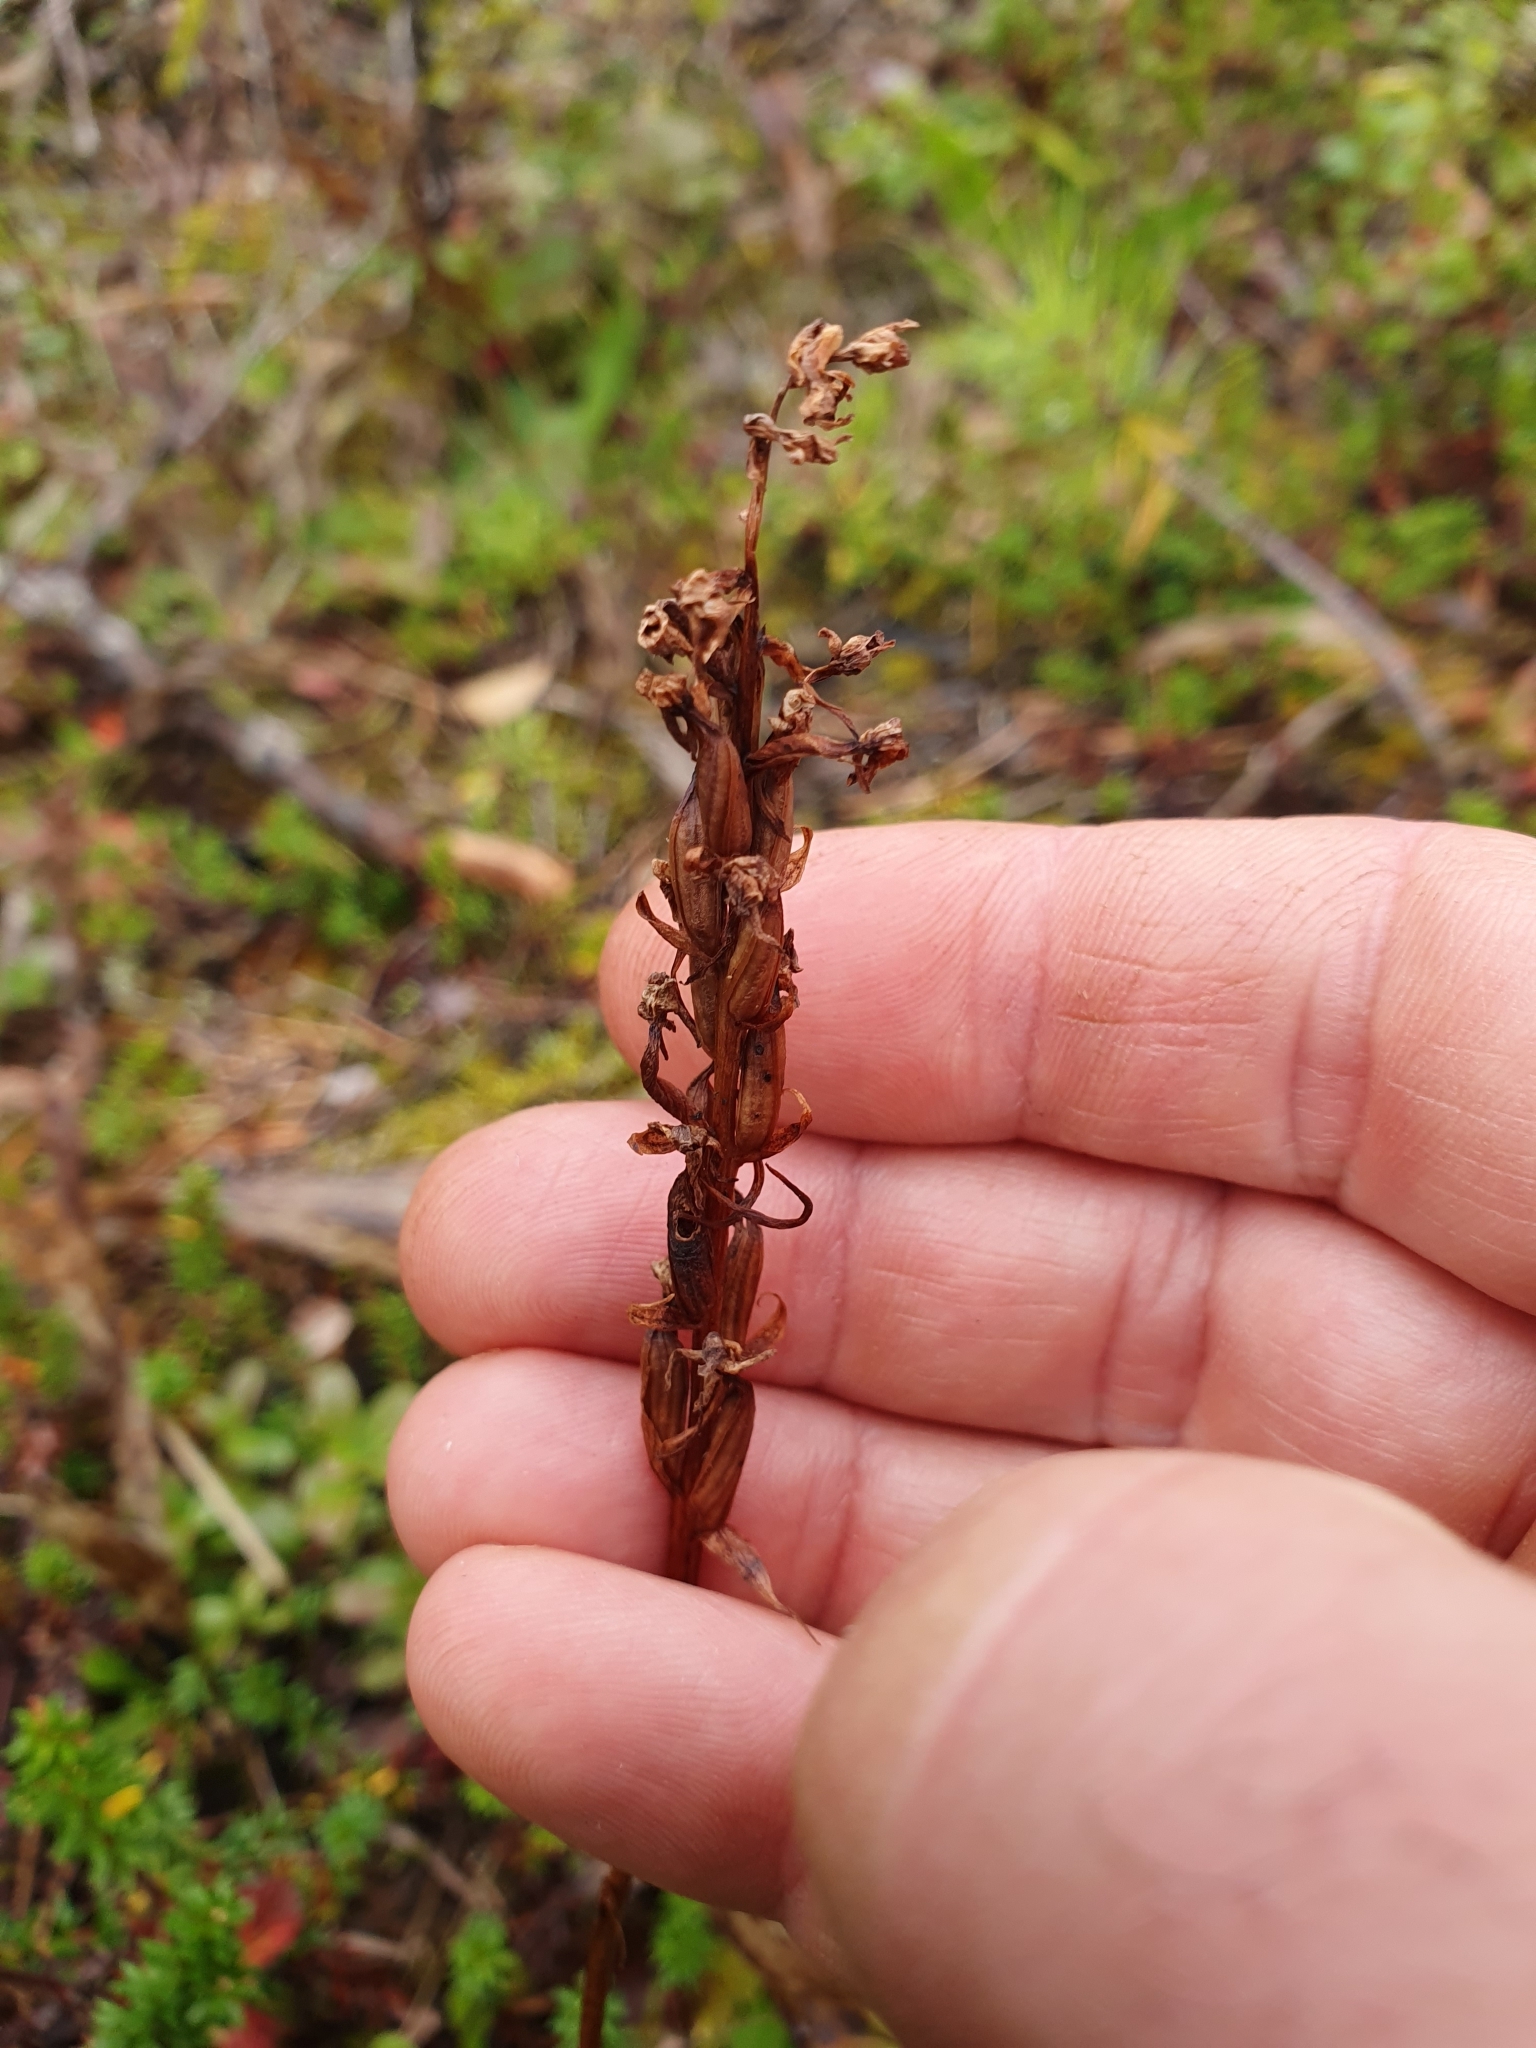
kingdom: Plantae
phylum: Tracheophyta
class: Liliopsida
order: Asparagales
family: Orchidaceae
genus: Gymnadenia
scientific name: Gymnadenia conopsea
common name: Fragrant orchid
